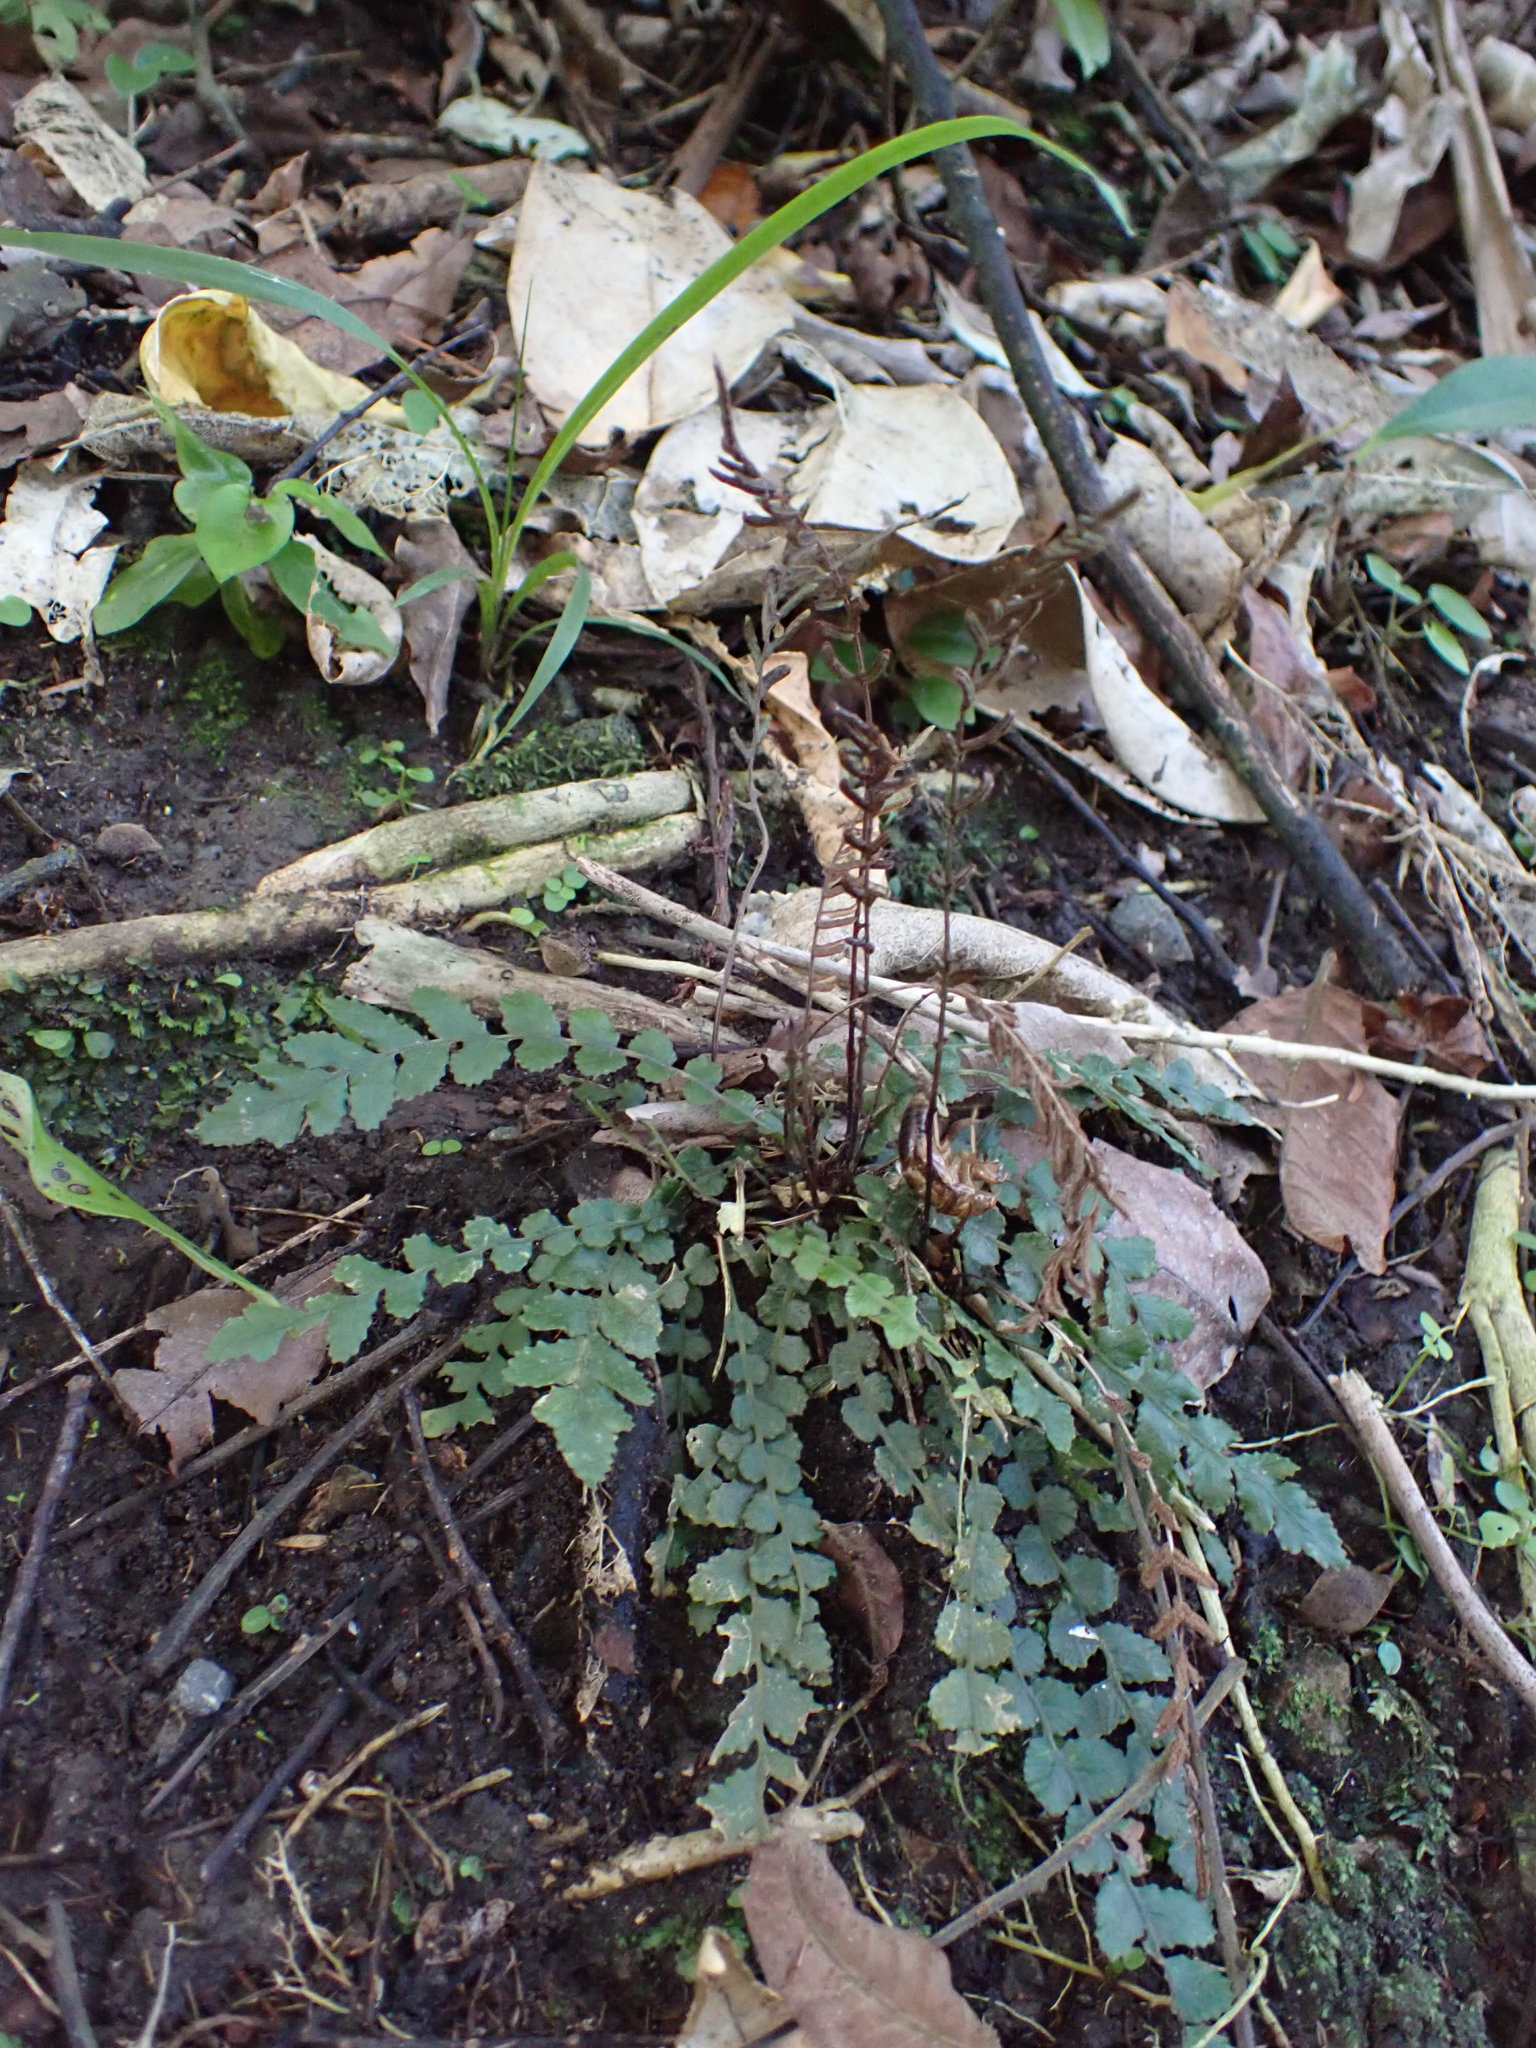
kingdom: Plantae
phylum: Tracheophyta
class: Polypodiopsida
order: Polypodiales
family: Blechnaceae
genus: Austroblechnum
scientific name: Austroblechnum membranaceum
